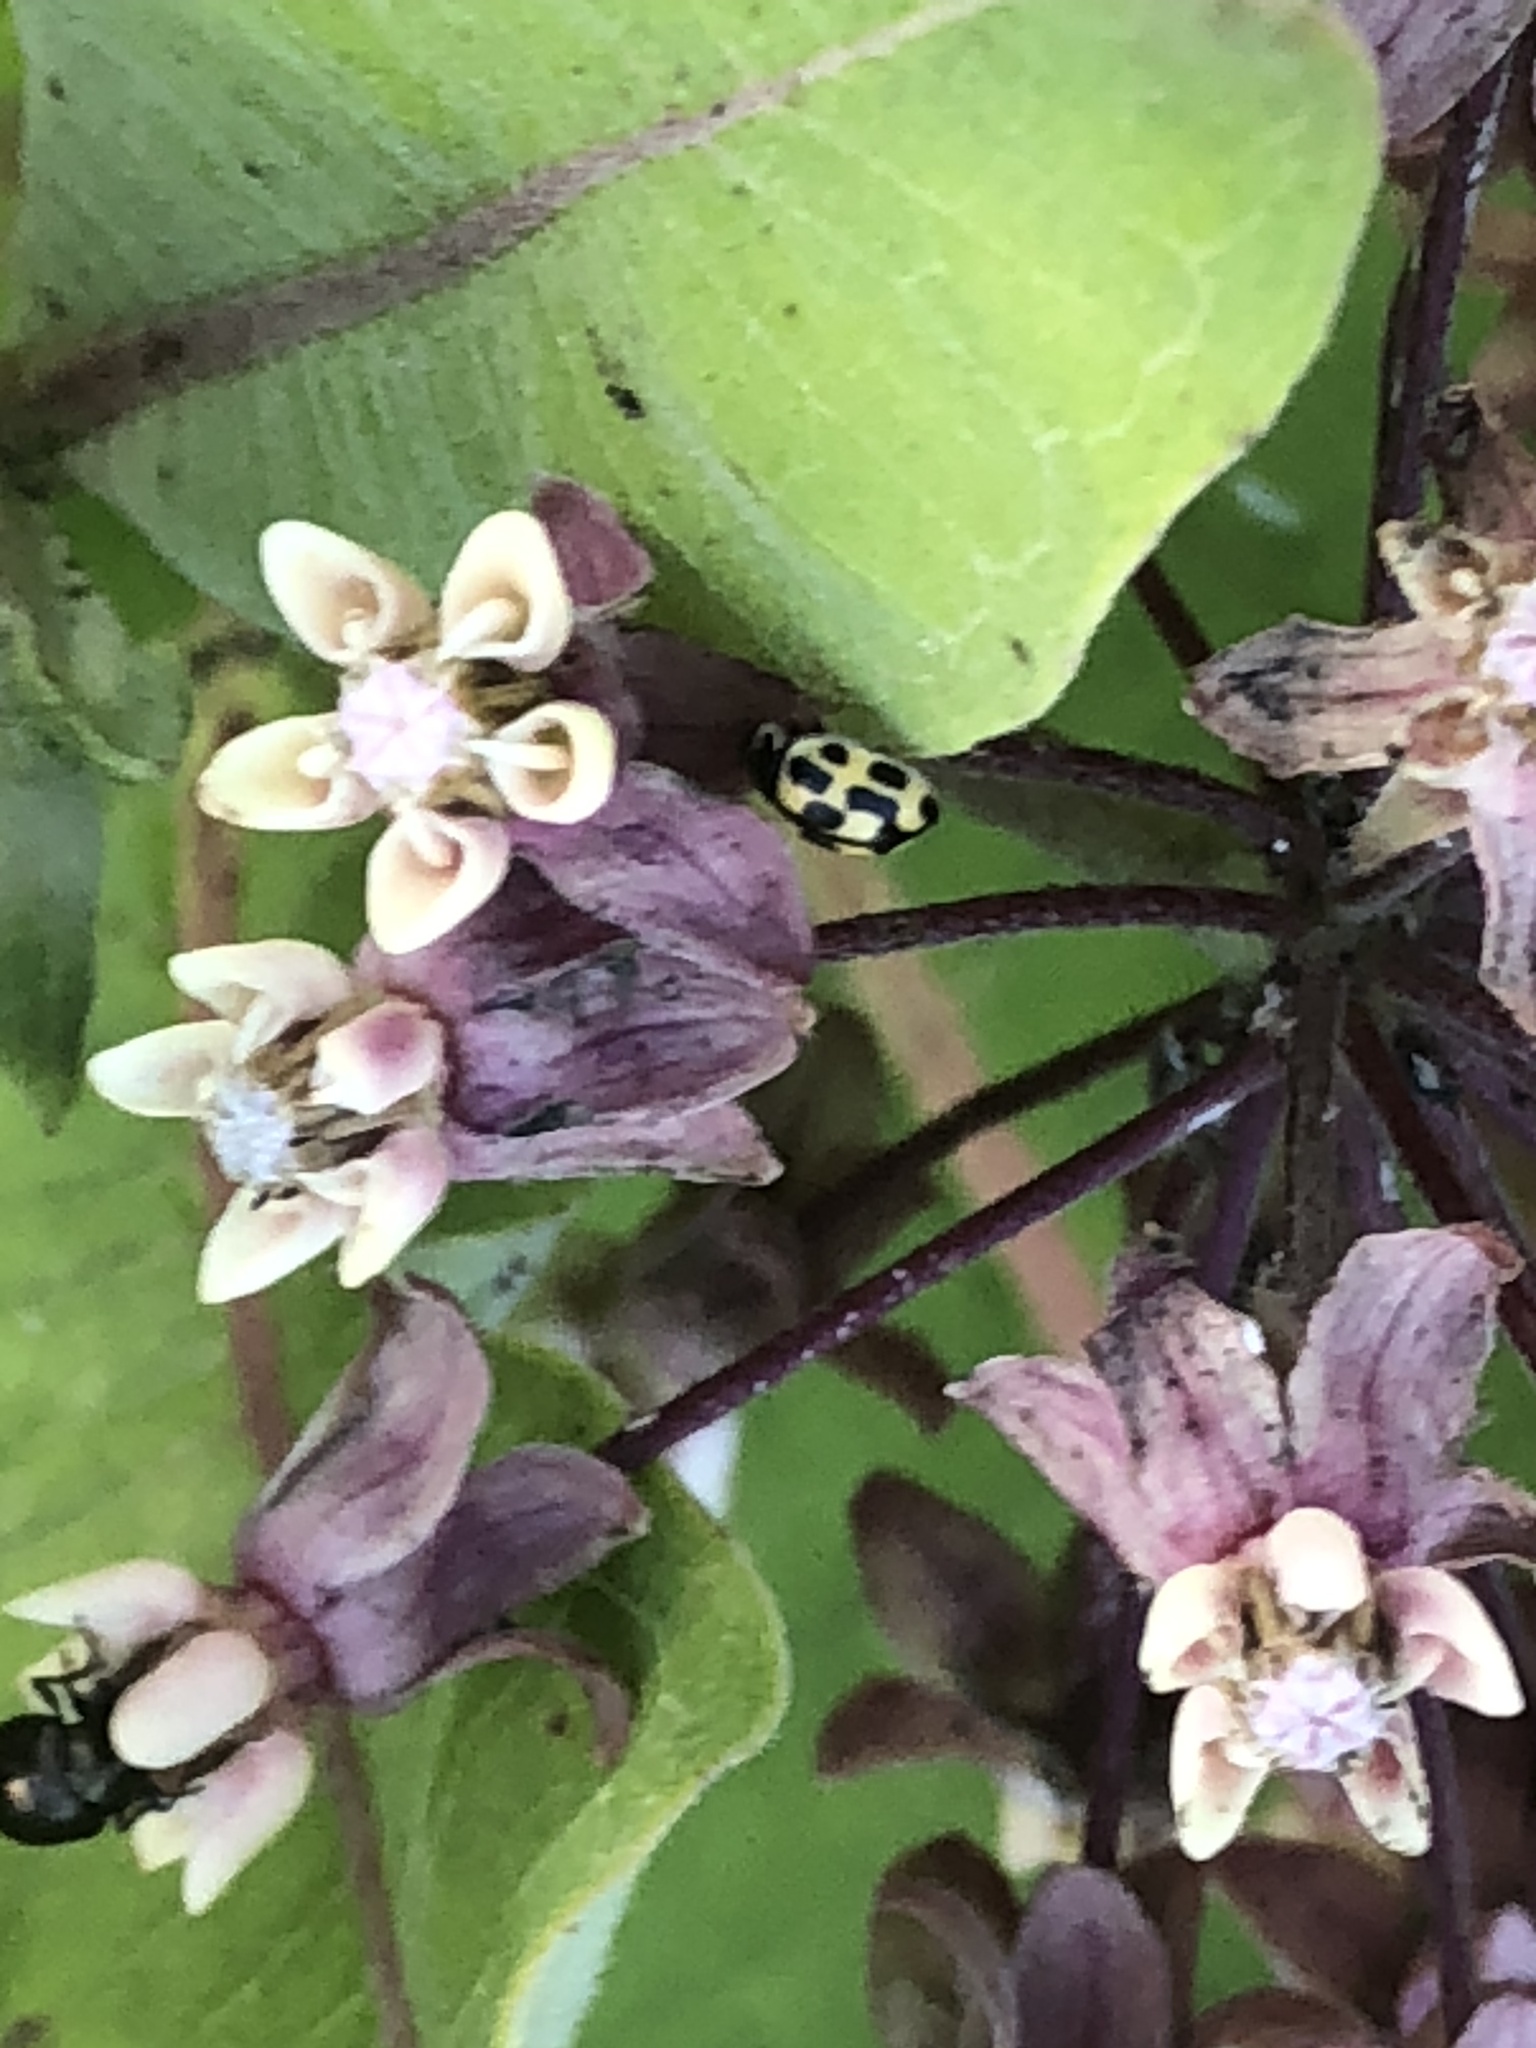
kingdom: Animalia
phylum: Arthropoda
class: Insecta
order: Coleoptera
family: Coccinellidae
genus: Propylaea
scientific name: Propylaea quatuordecimpunctata
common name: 14-spotted ladybird beetle
